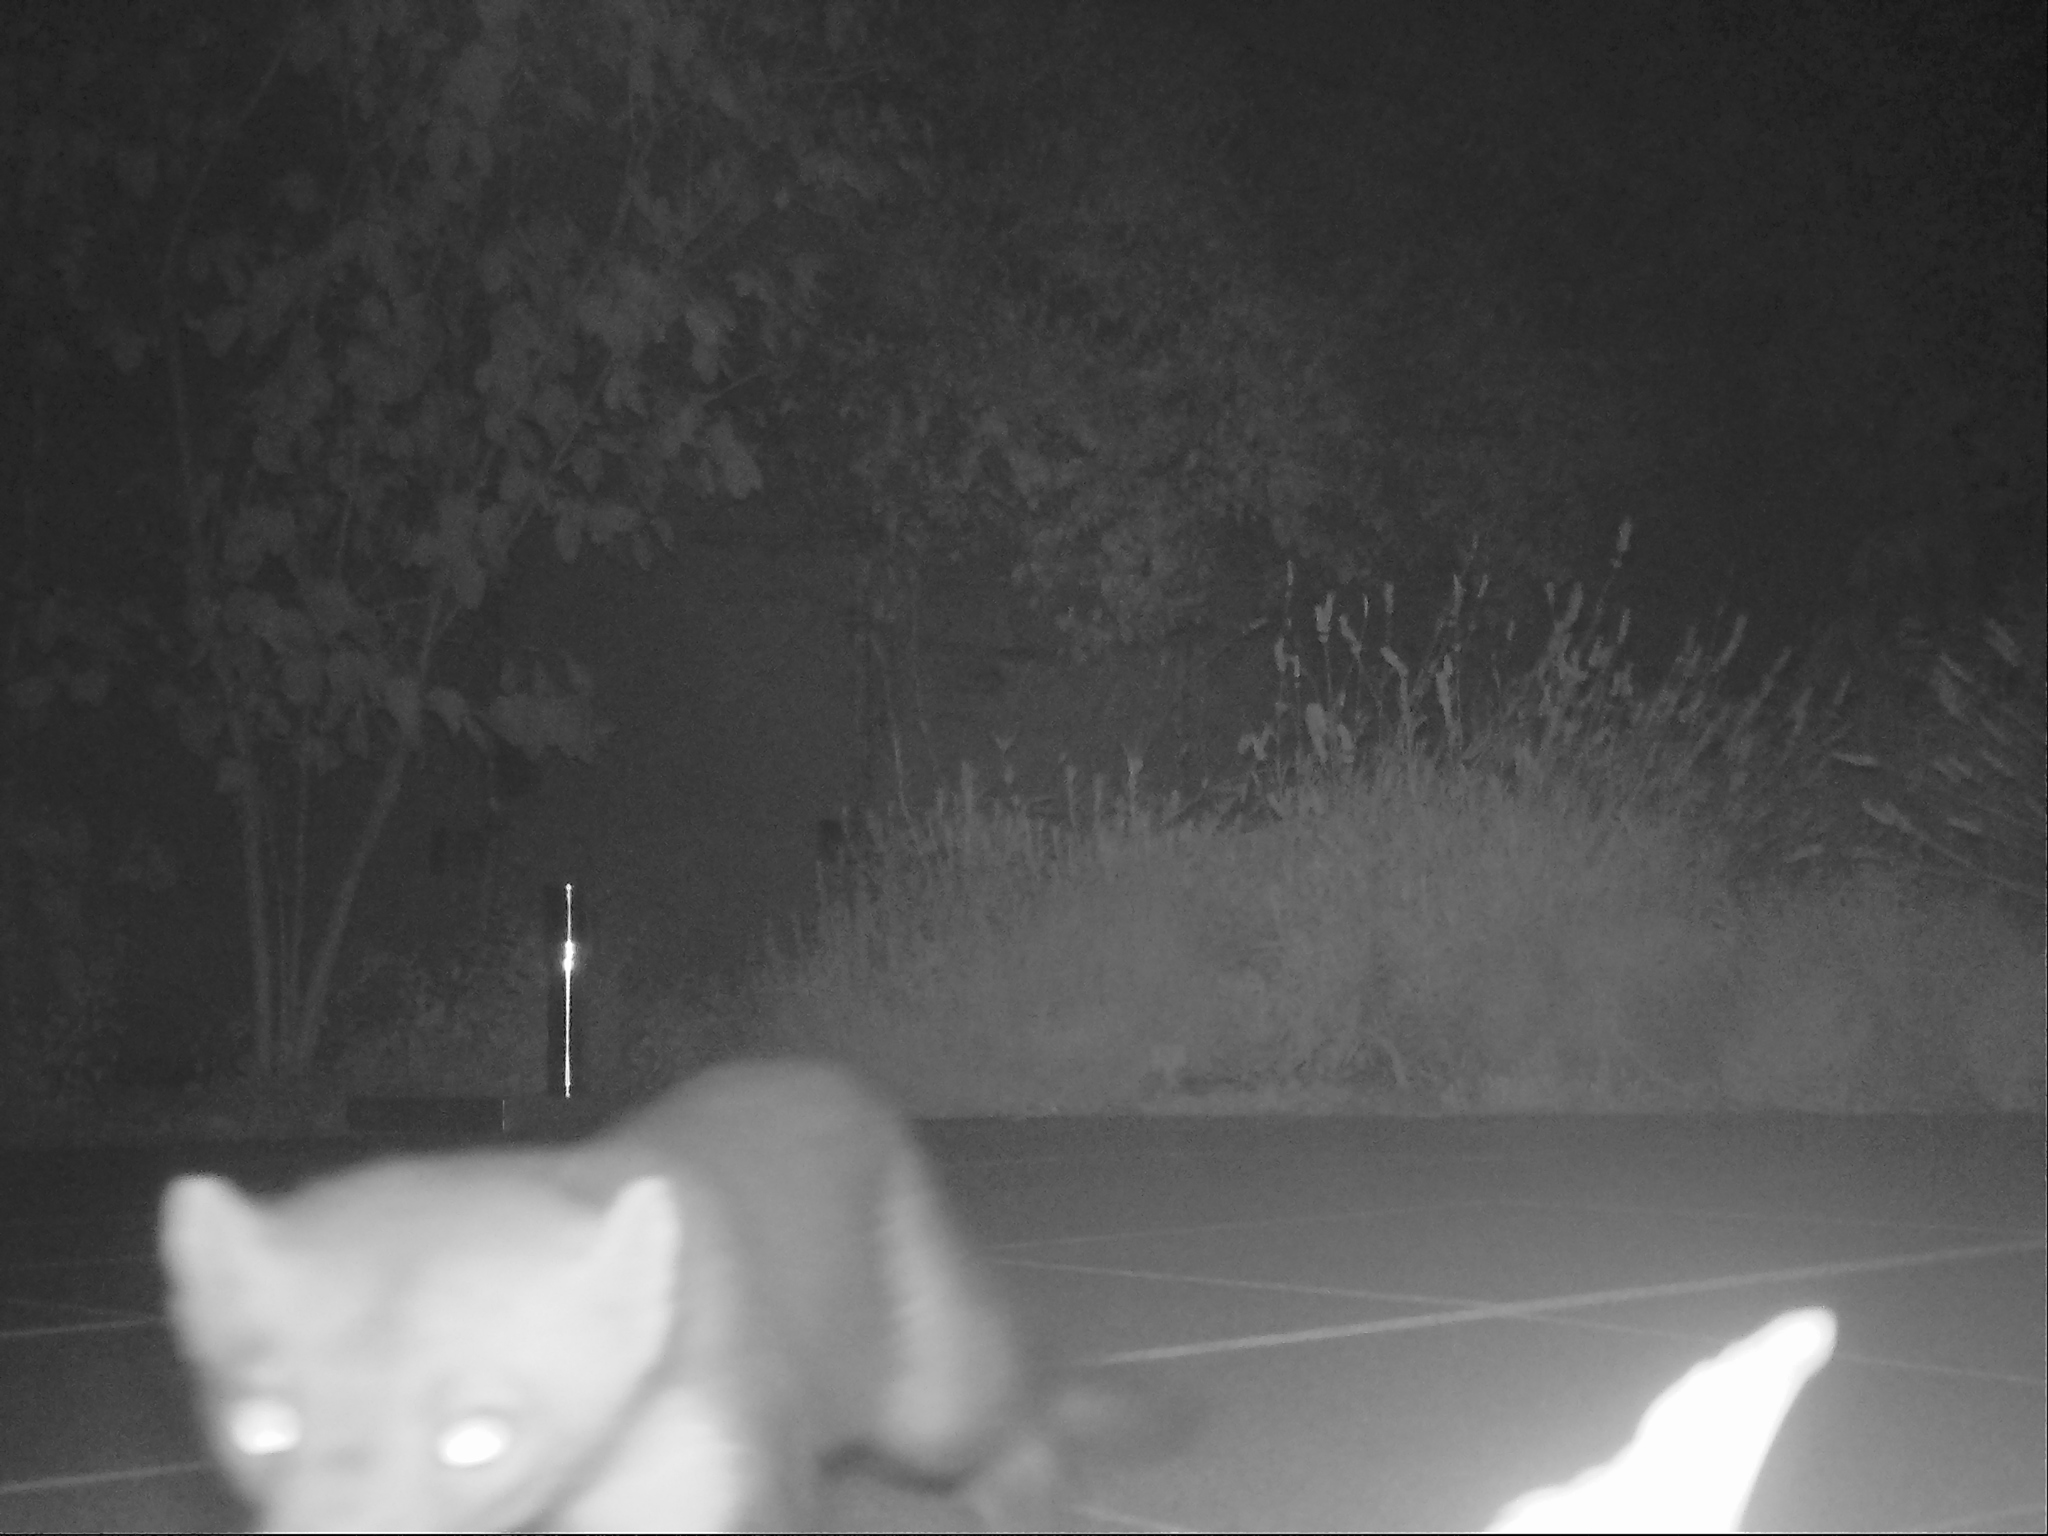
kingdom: Animalia
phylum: Chordata
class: Mammalia
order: Carnivora
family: Mustelidae
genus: Martes
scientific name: Martes foina
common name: Beech marten
